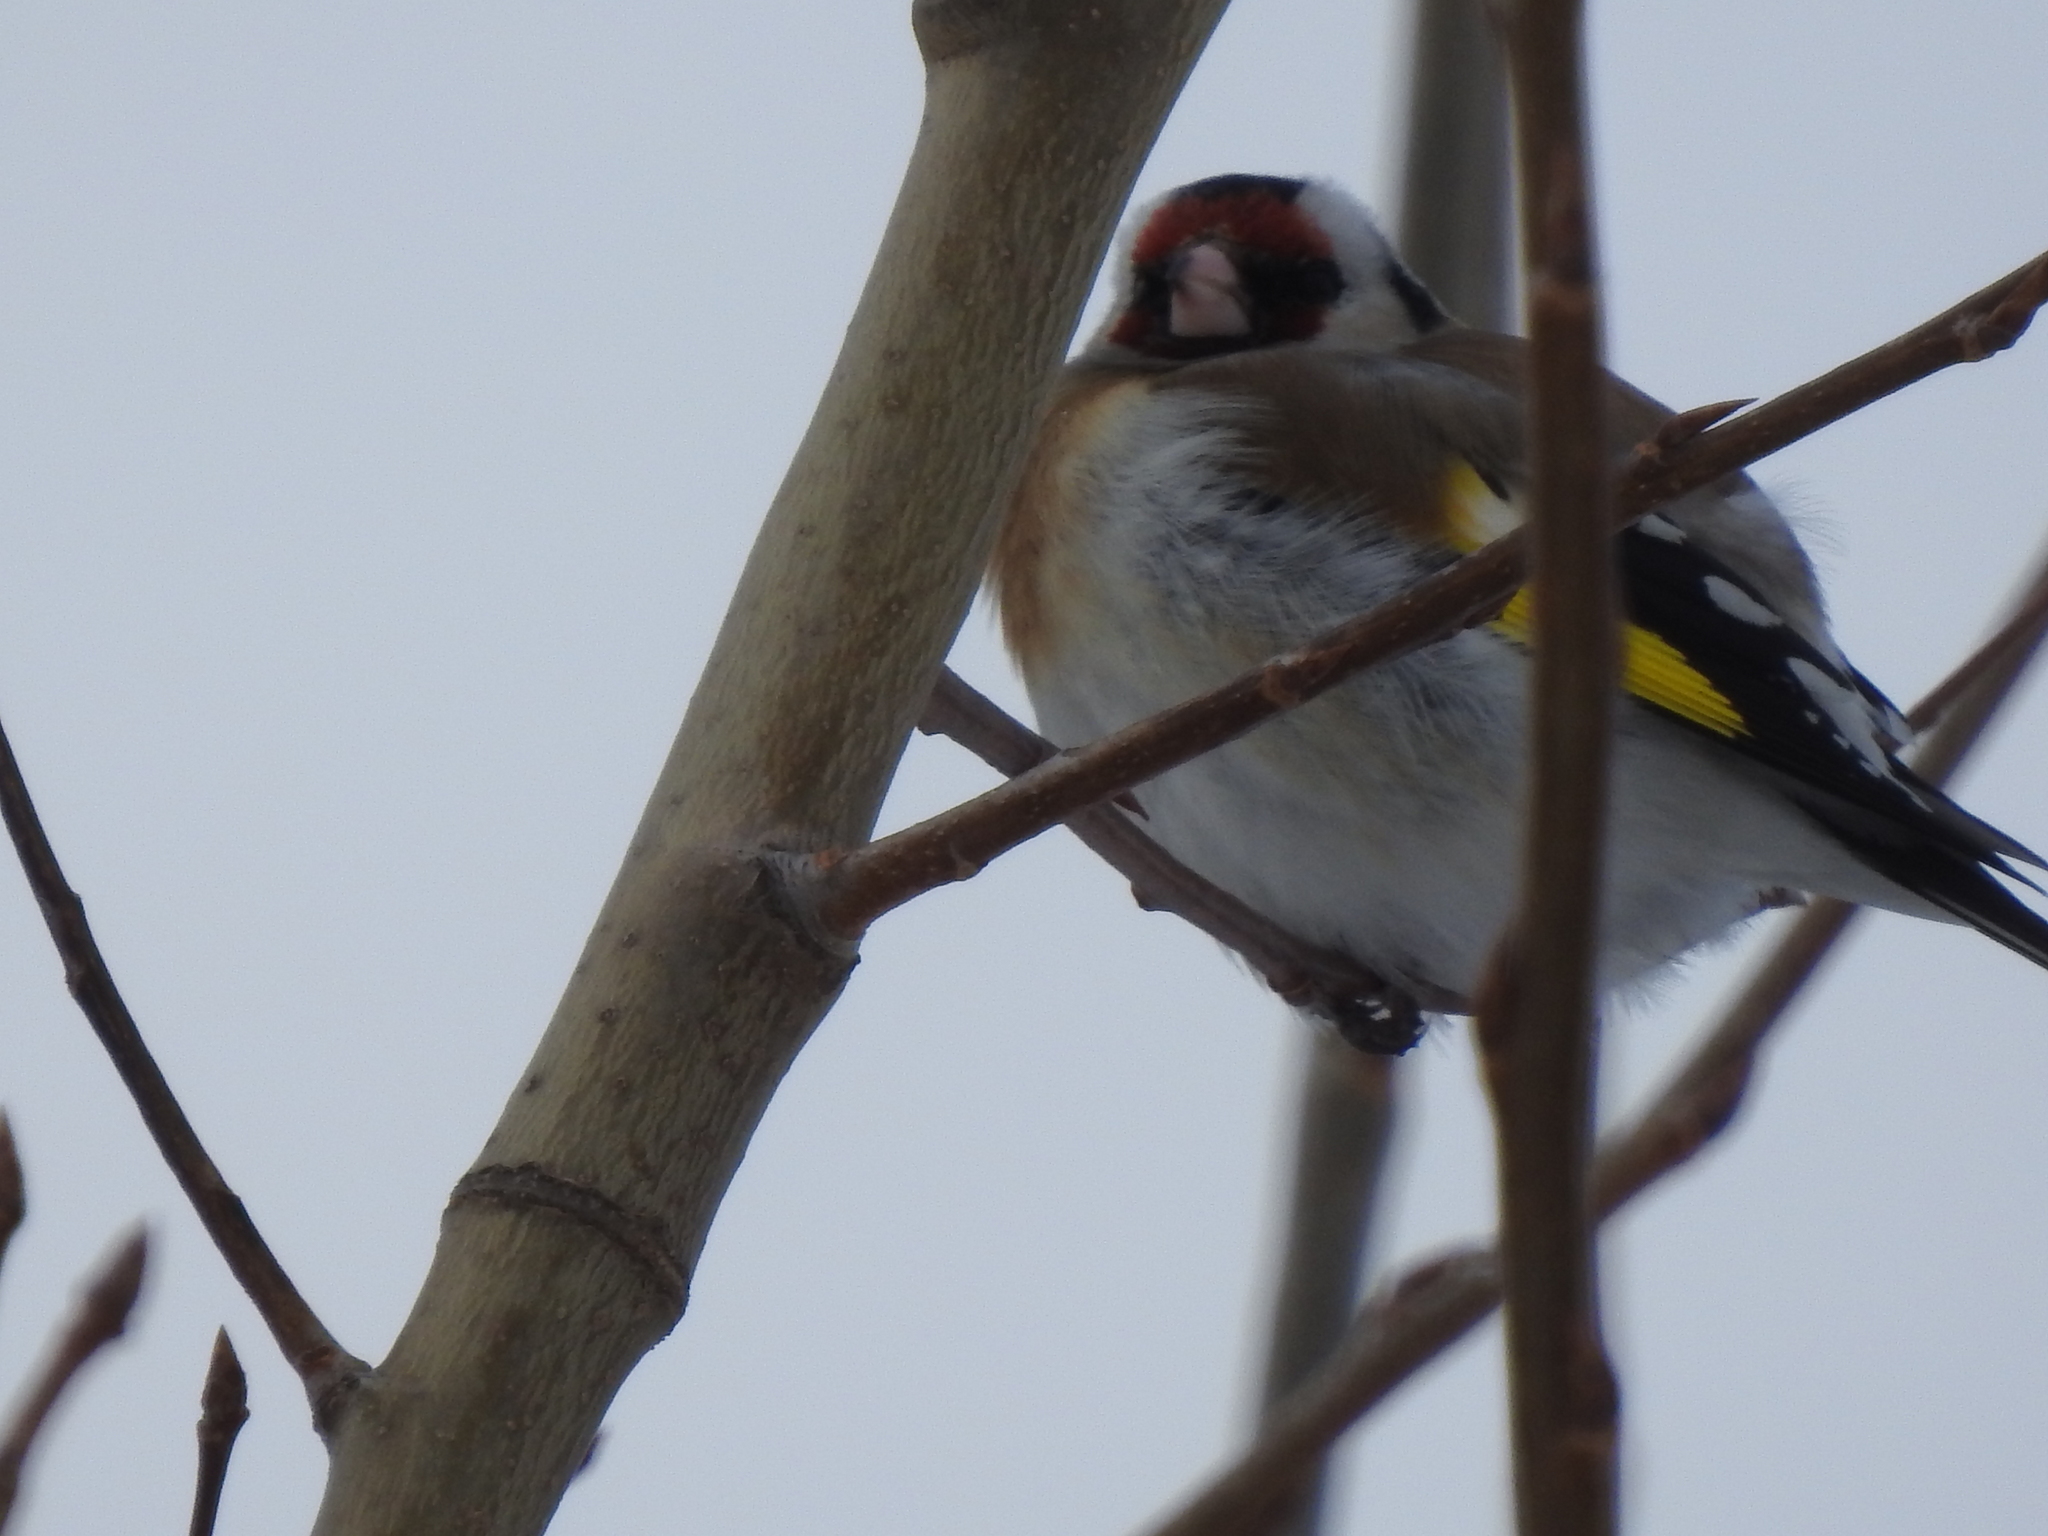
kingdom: Animalia
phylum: Chordata
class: Aves
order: Passeriformes
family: Fringillidae
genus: Carduelis
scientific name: Carduelis carduelis
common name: European goldfinch
